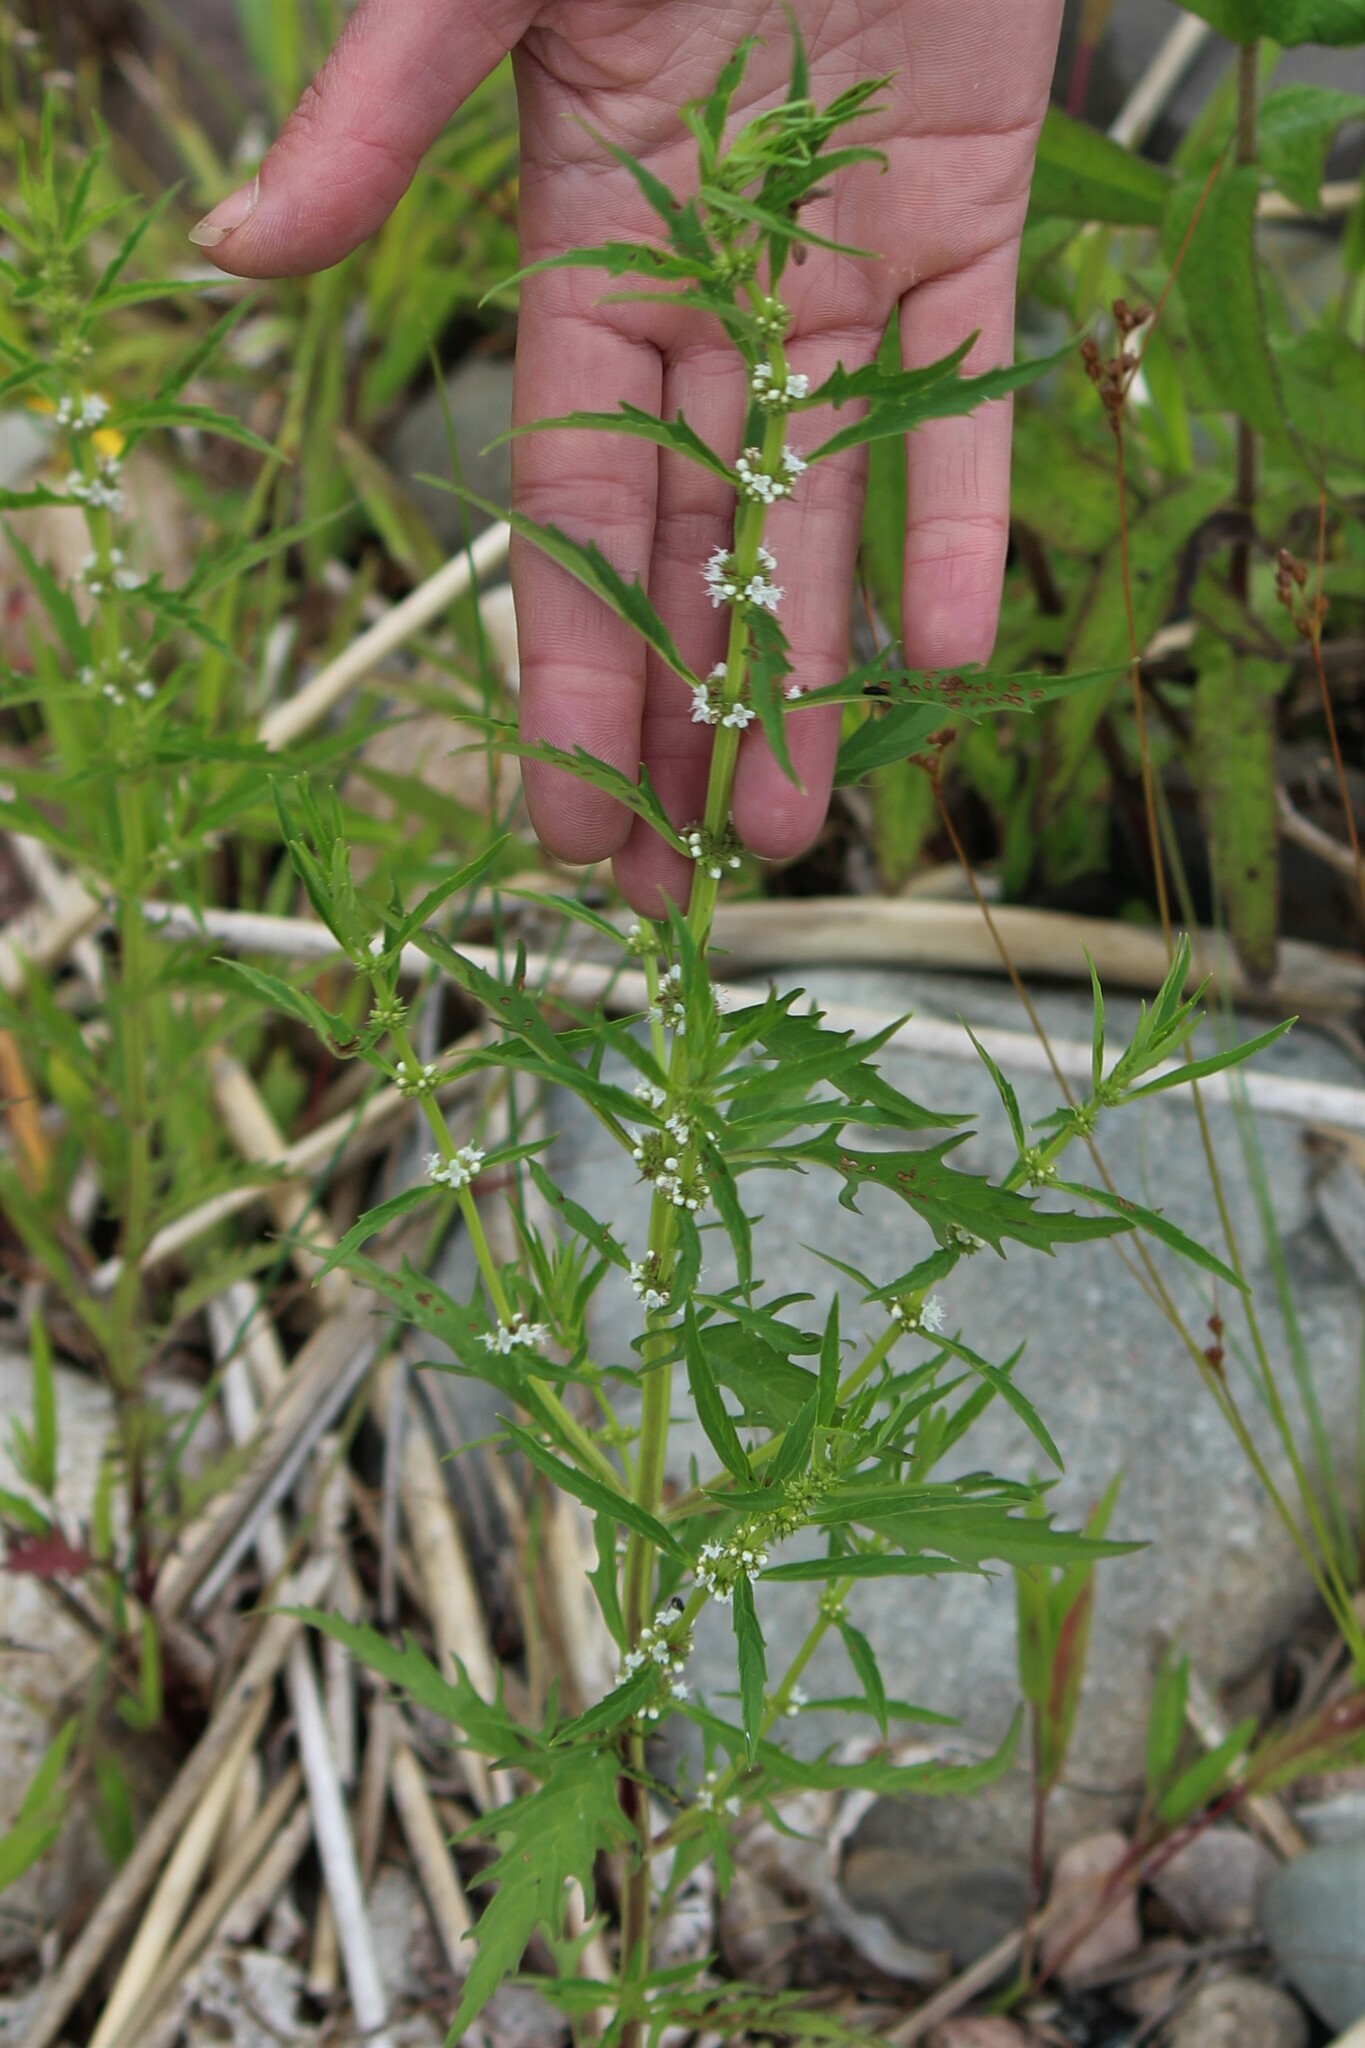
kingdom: Plantae
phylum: Tracheophyta
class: Magnoliopsida
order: Lamiales
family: Lamiaceae
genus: Lycopus
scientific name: Lycopus americanus
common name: American bugleweed
